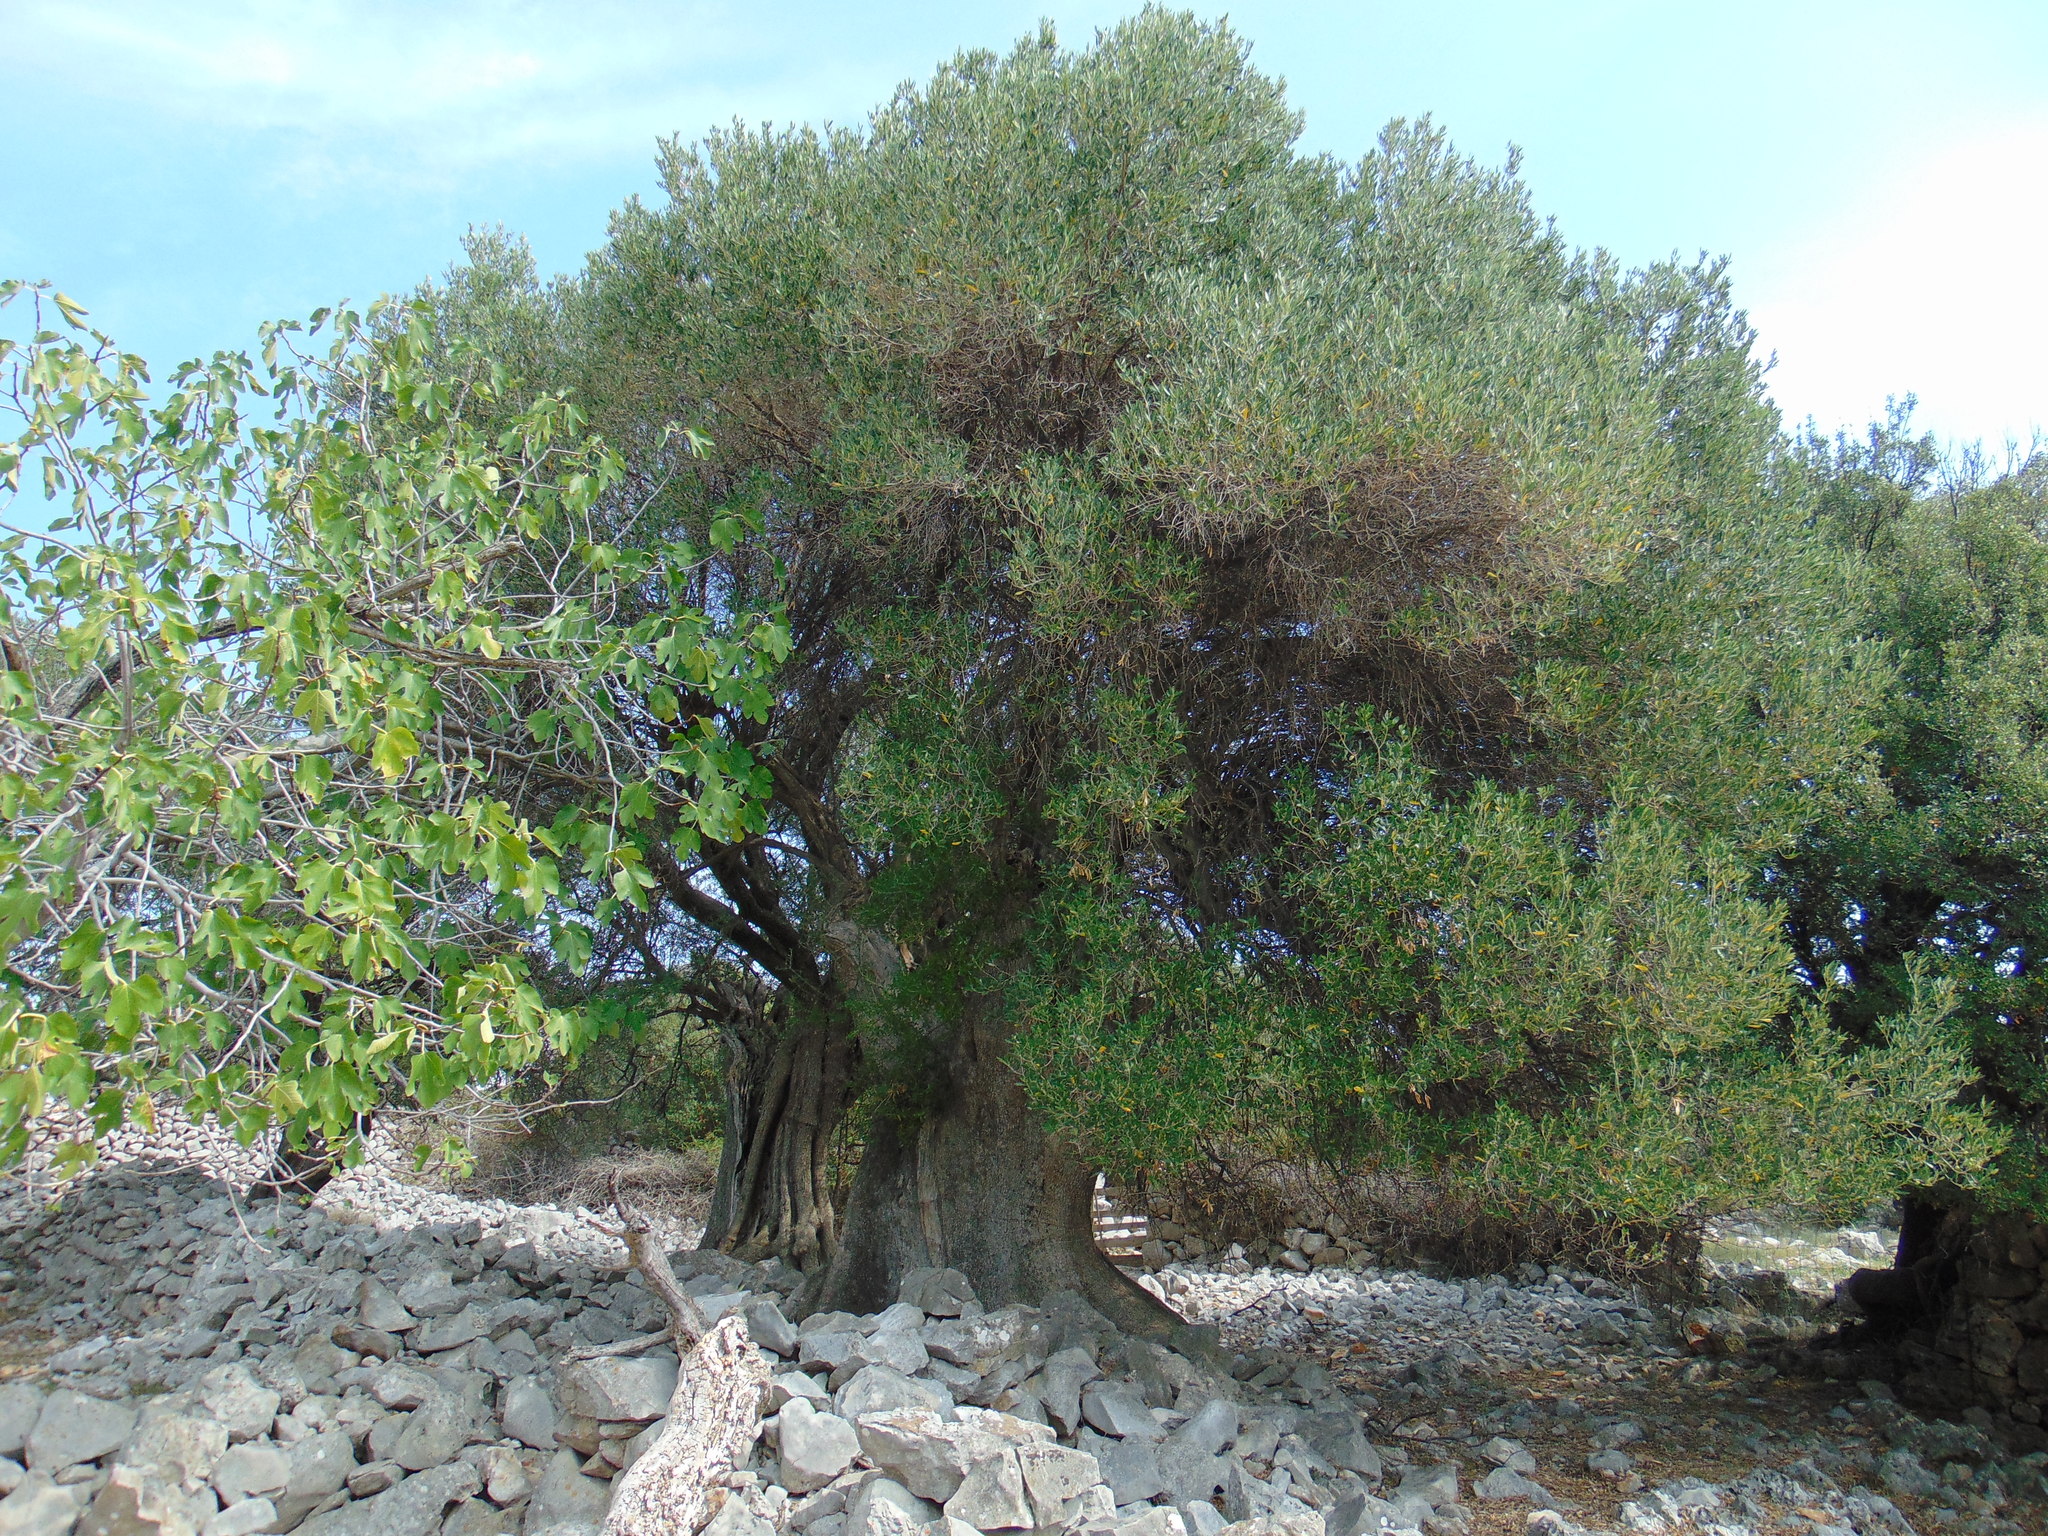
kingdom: Plantae
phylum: Tracheophyta
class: Magnoliopsida
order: Lamiales
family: Oleaceae
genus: Olea
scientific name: Olea europaea
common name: Olive
